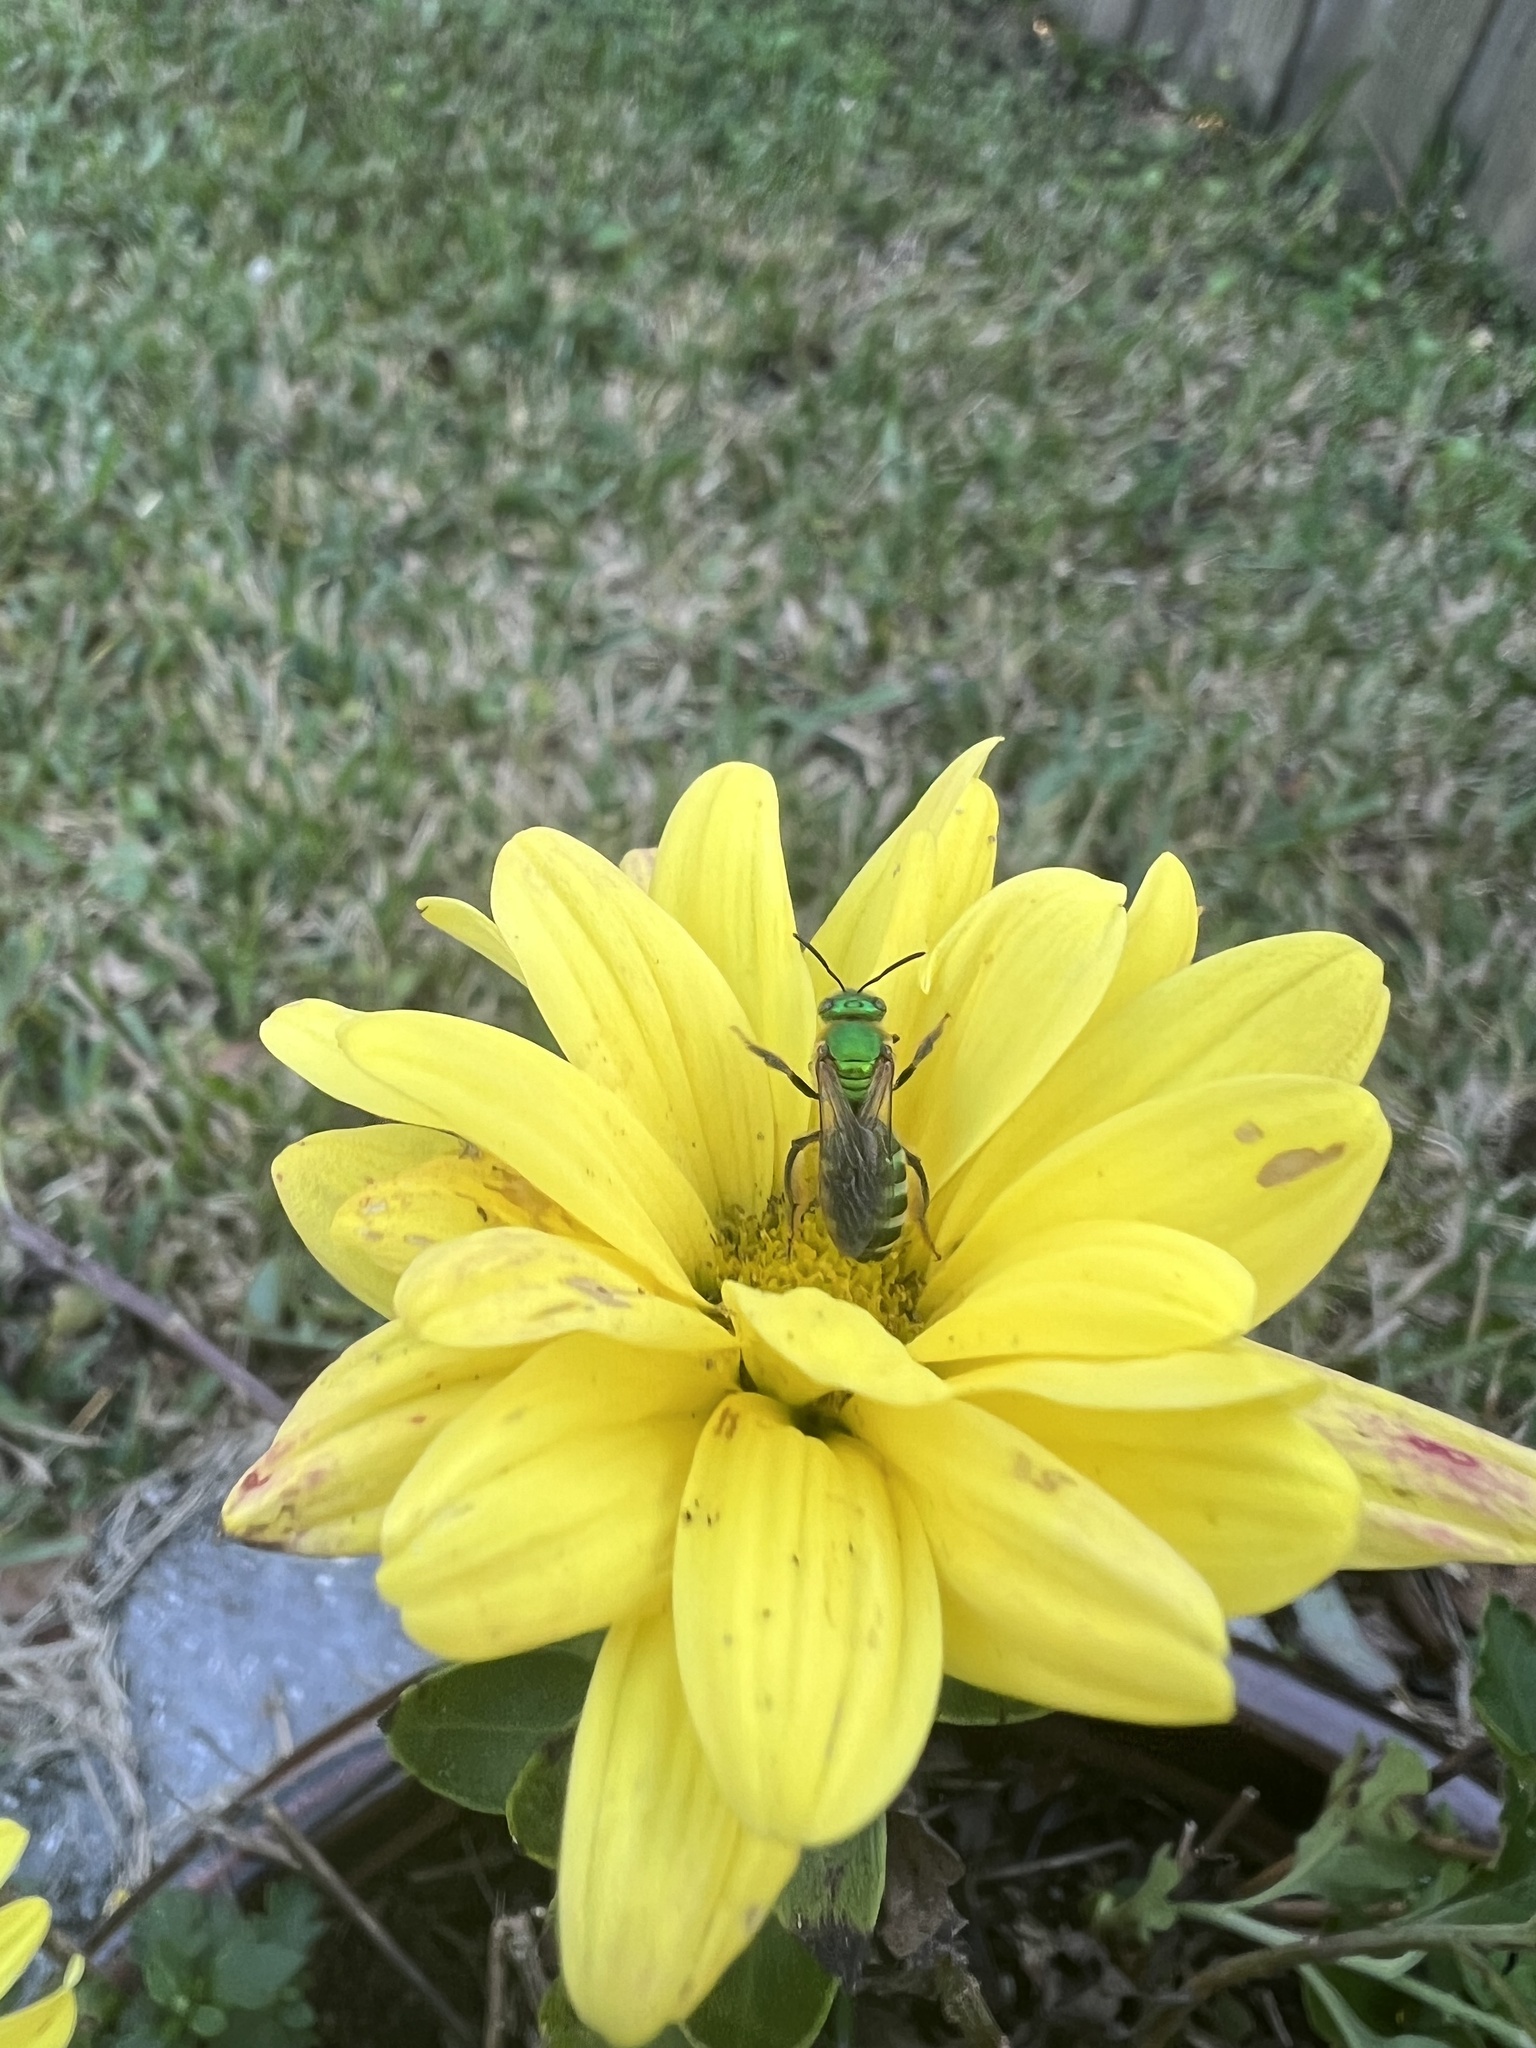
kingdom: Animalia
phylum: Arthropoda
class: Insecta
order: Hymenoptera
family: Halictidae
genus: Agapostemon
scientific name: Agapostemon splendens
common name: Brown-winged striped sweat bee
